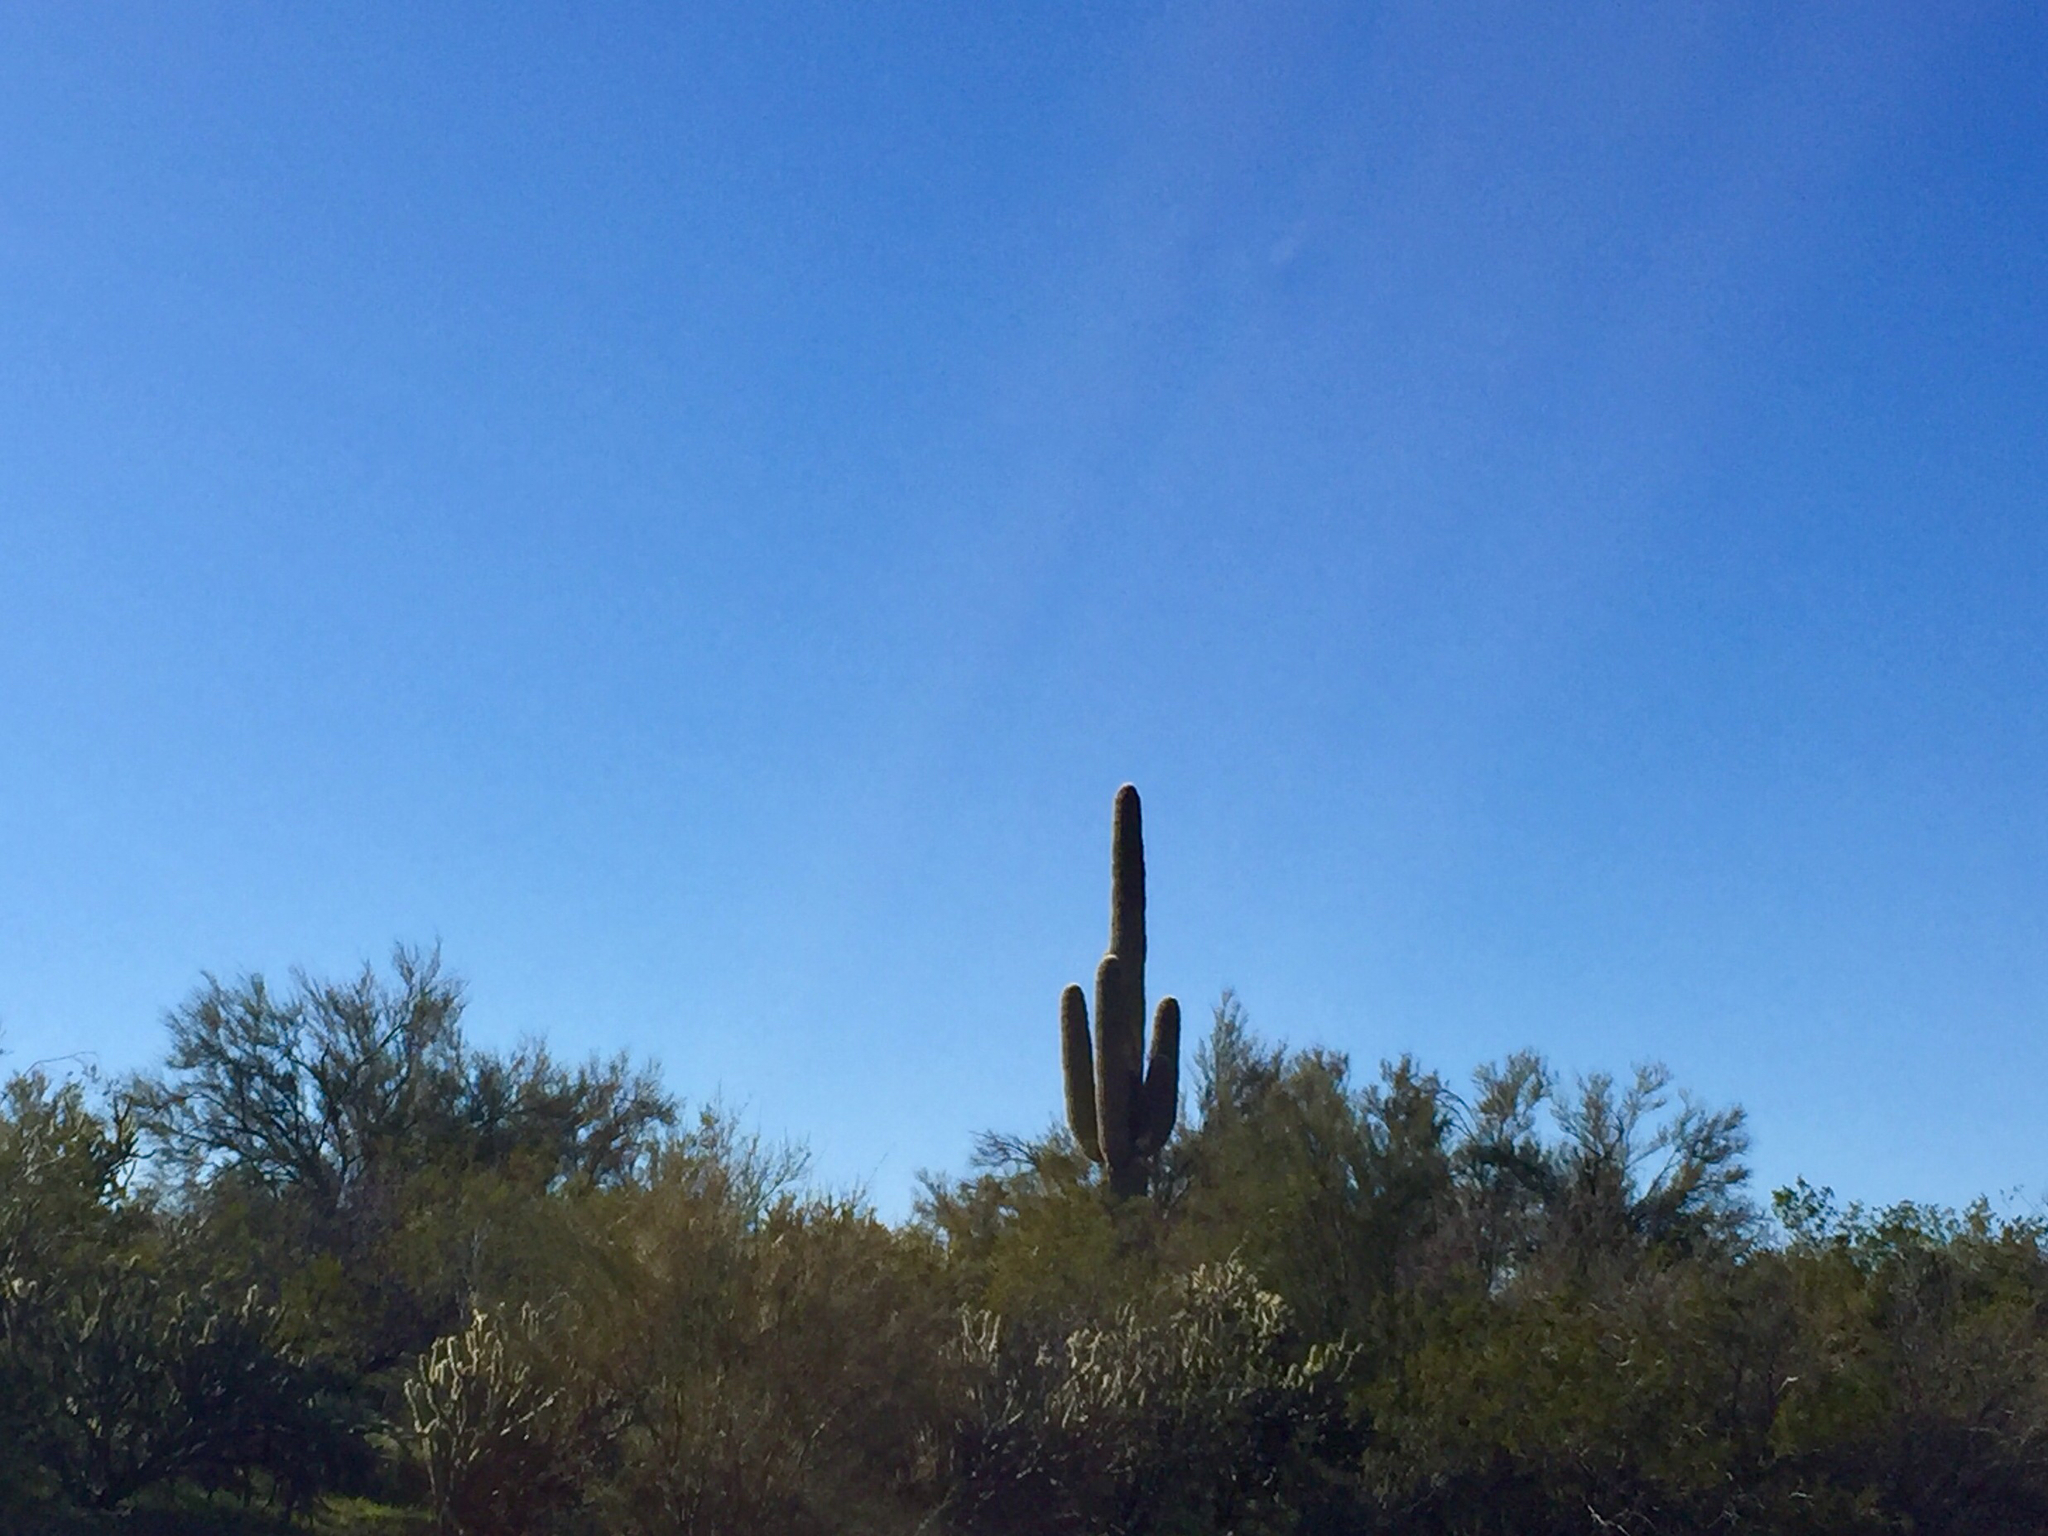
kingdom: Plantae
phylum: Tracheophyta
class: Magnoliopsida
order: Caryophyllales
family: Cactaceae
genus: Carnegiea
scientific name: Carnegiea gigantea
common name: Saguaro
